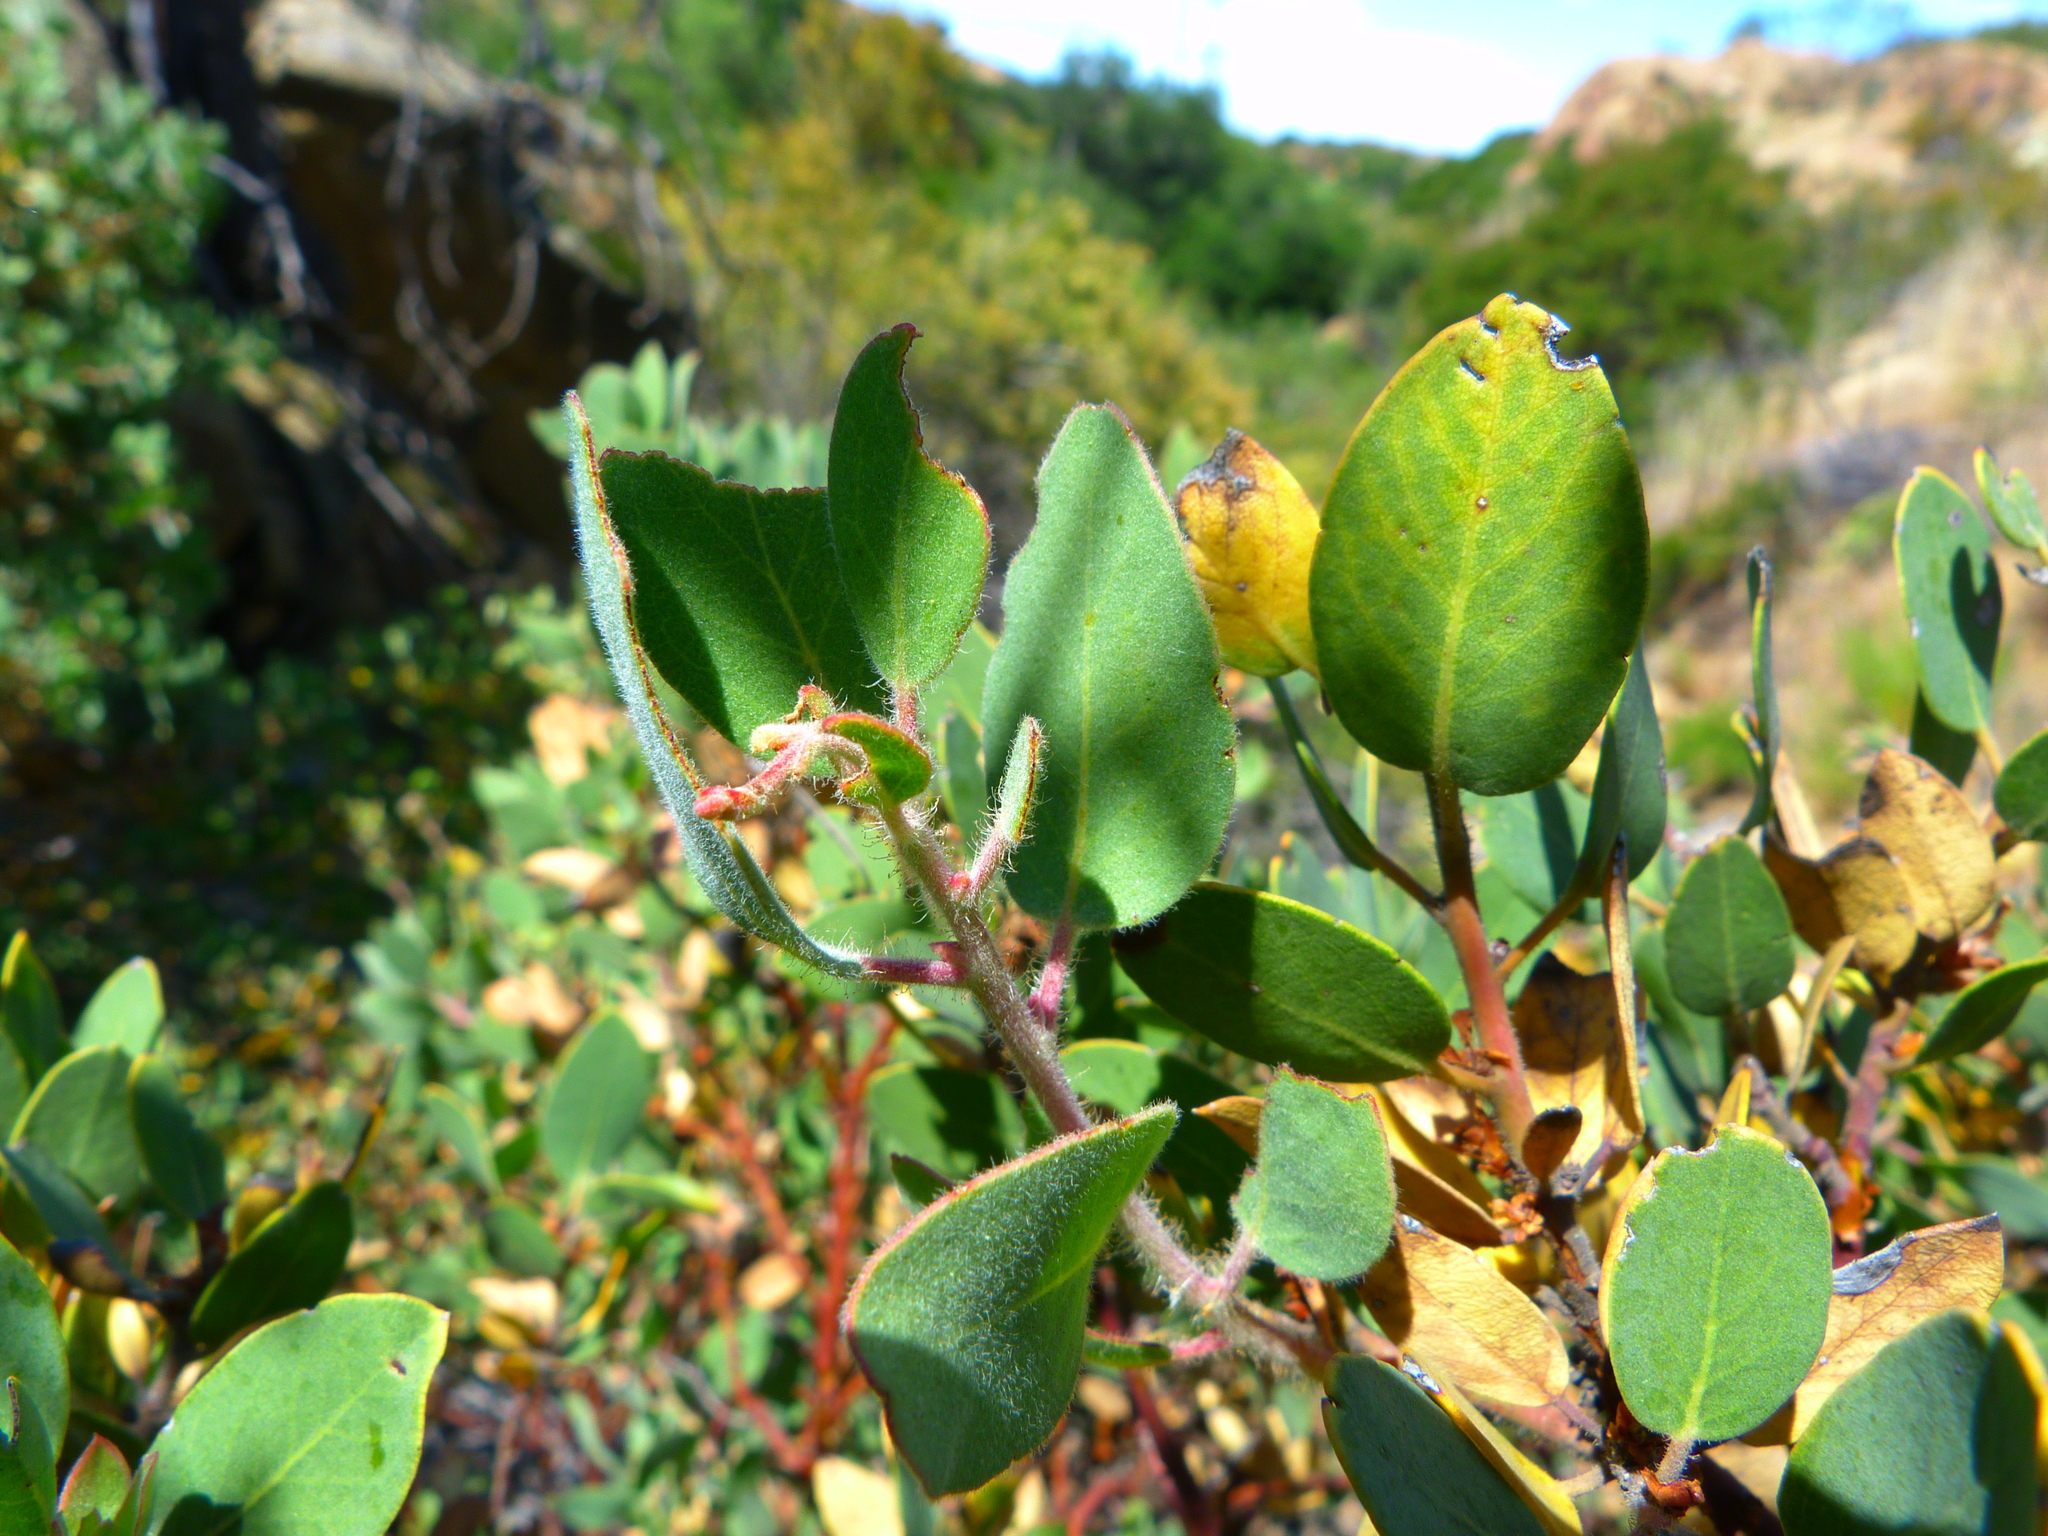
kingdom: Plantae
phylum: Tracheophyta
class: Magnoliopsida
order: Ericales
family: Ericaceae
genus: Arctostaphylos
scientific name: Arctostaphylos glandulosa
